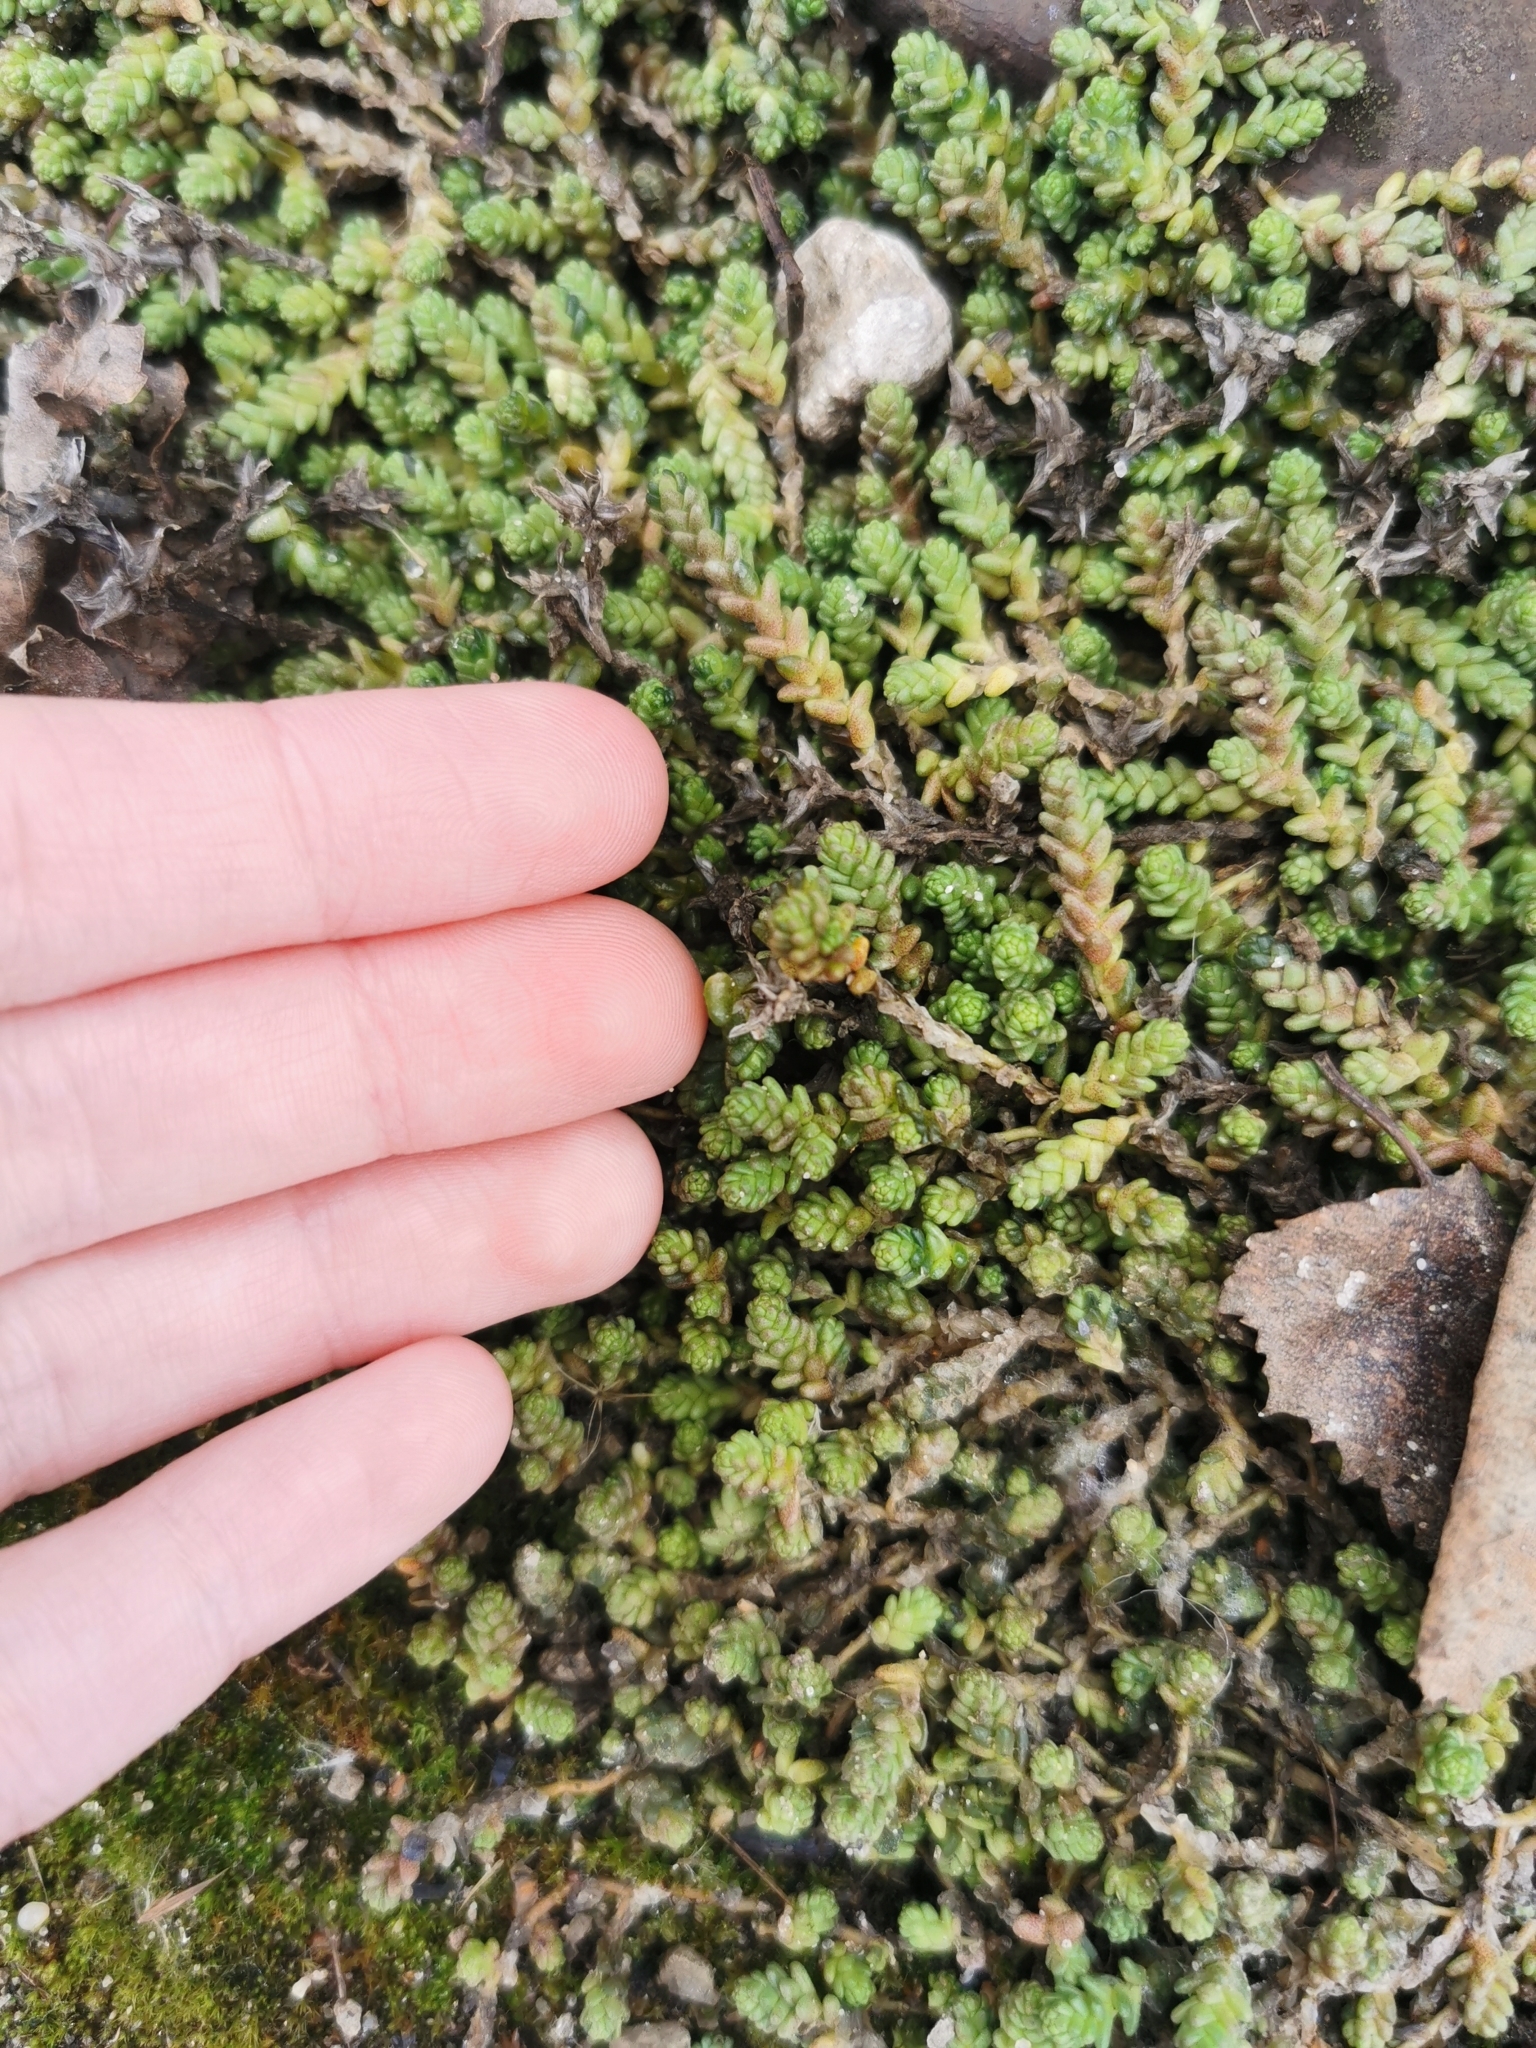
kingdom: Plantae
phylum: Tracheophyta
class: Magnoliopsida
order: Saxifragales
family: Crassulaceae
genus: Sedum
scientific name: Sedum acre
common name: Biting stonecrop
